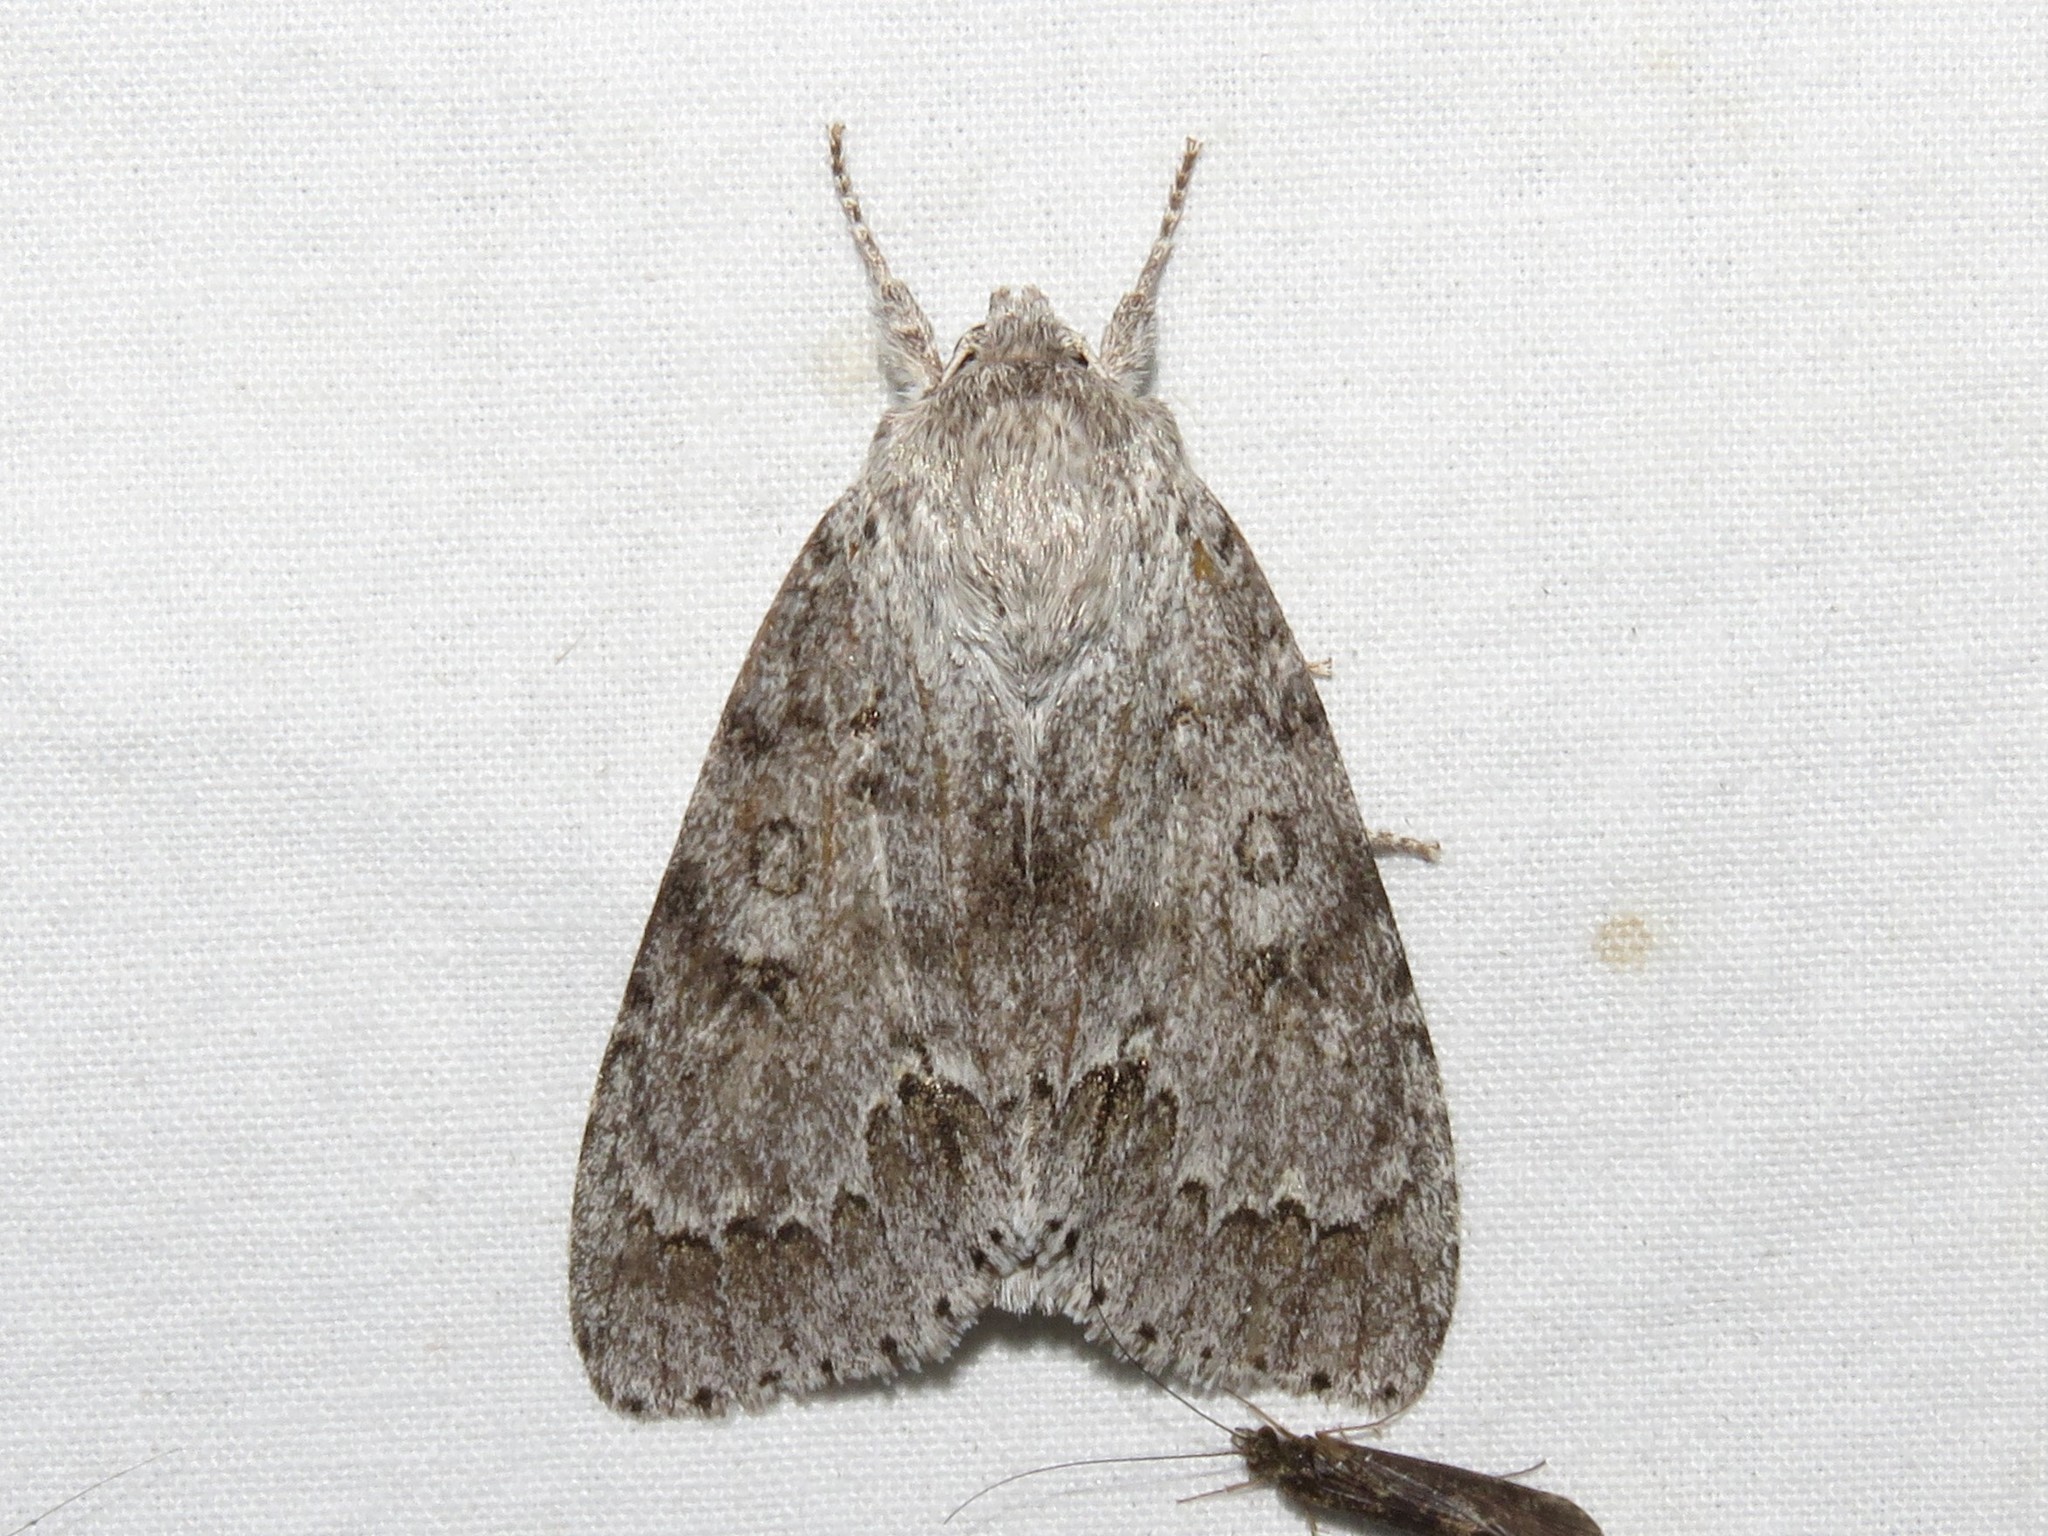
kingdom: Animalia
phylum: Arthropoda
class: Insecta
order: Lepidoptera
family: Noctuidae
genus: Acronicta
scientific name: Acronicta insita
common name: Large gray dagger
